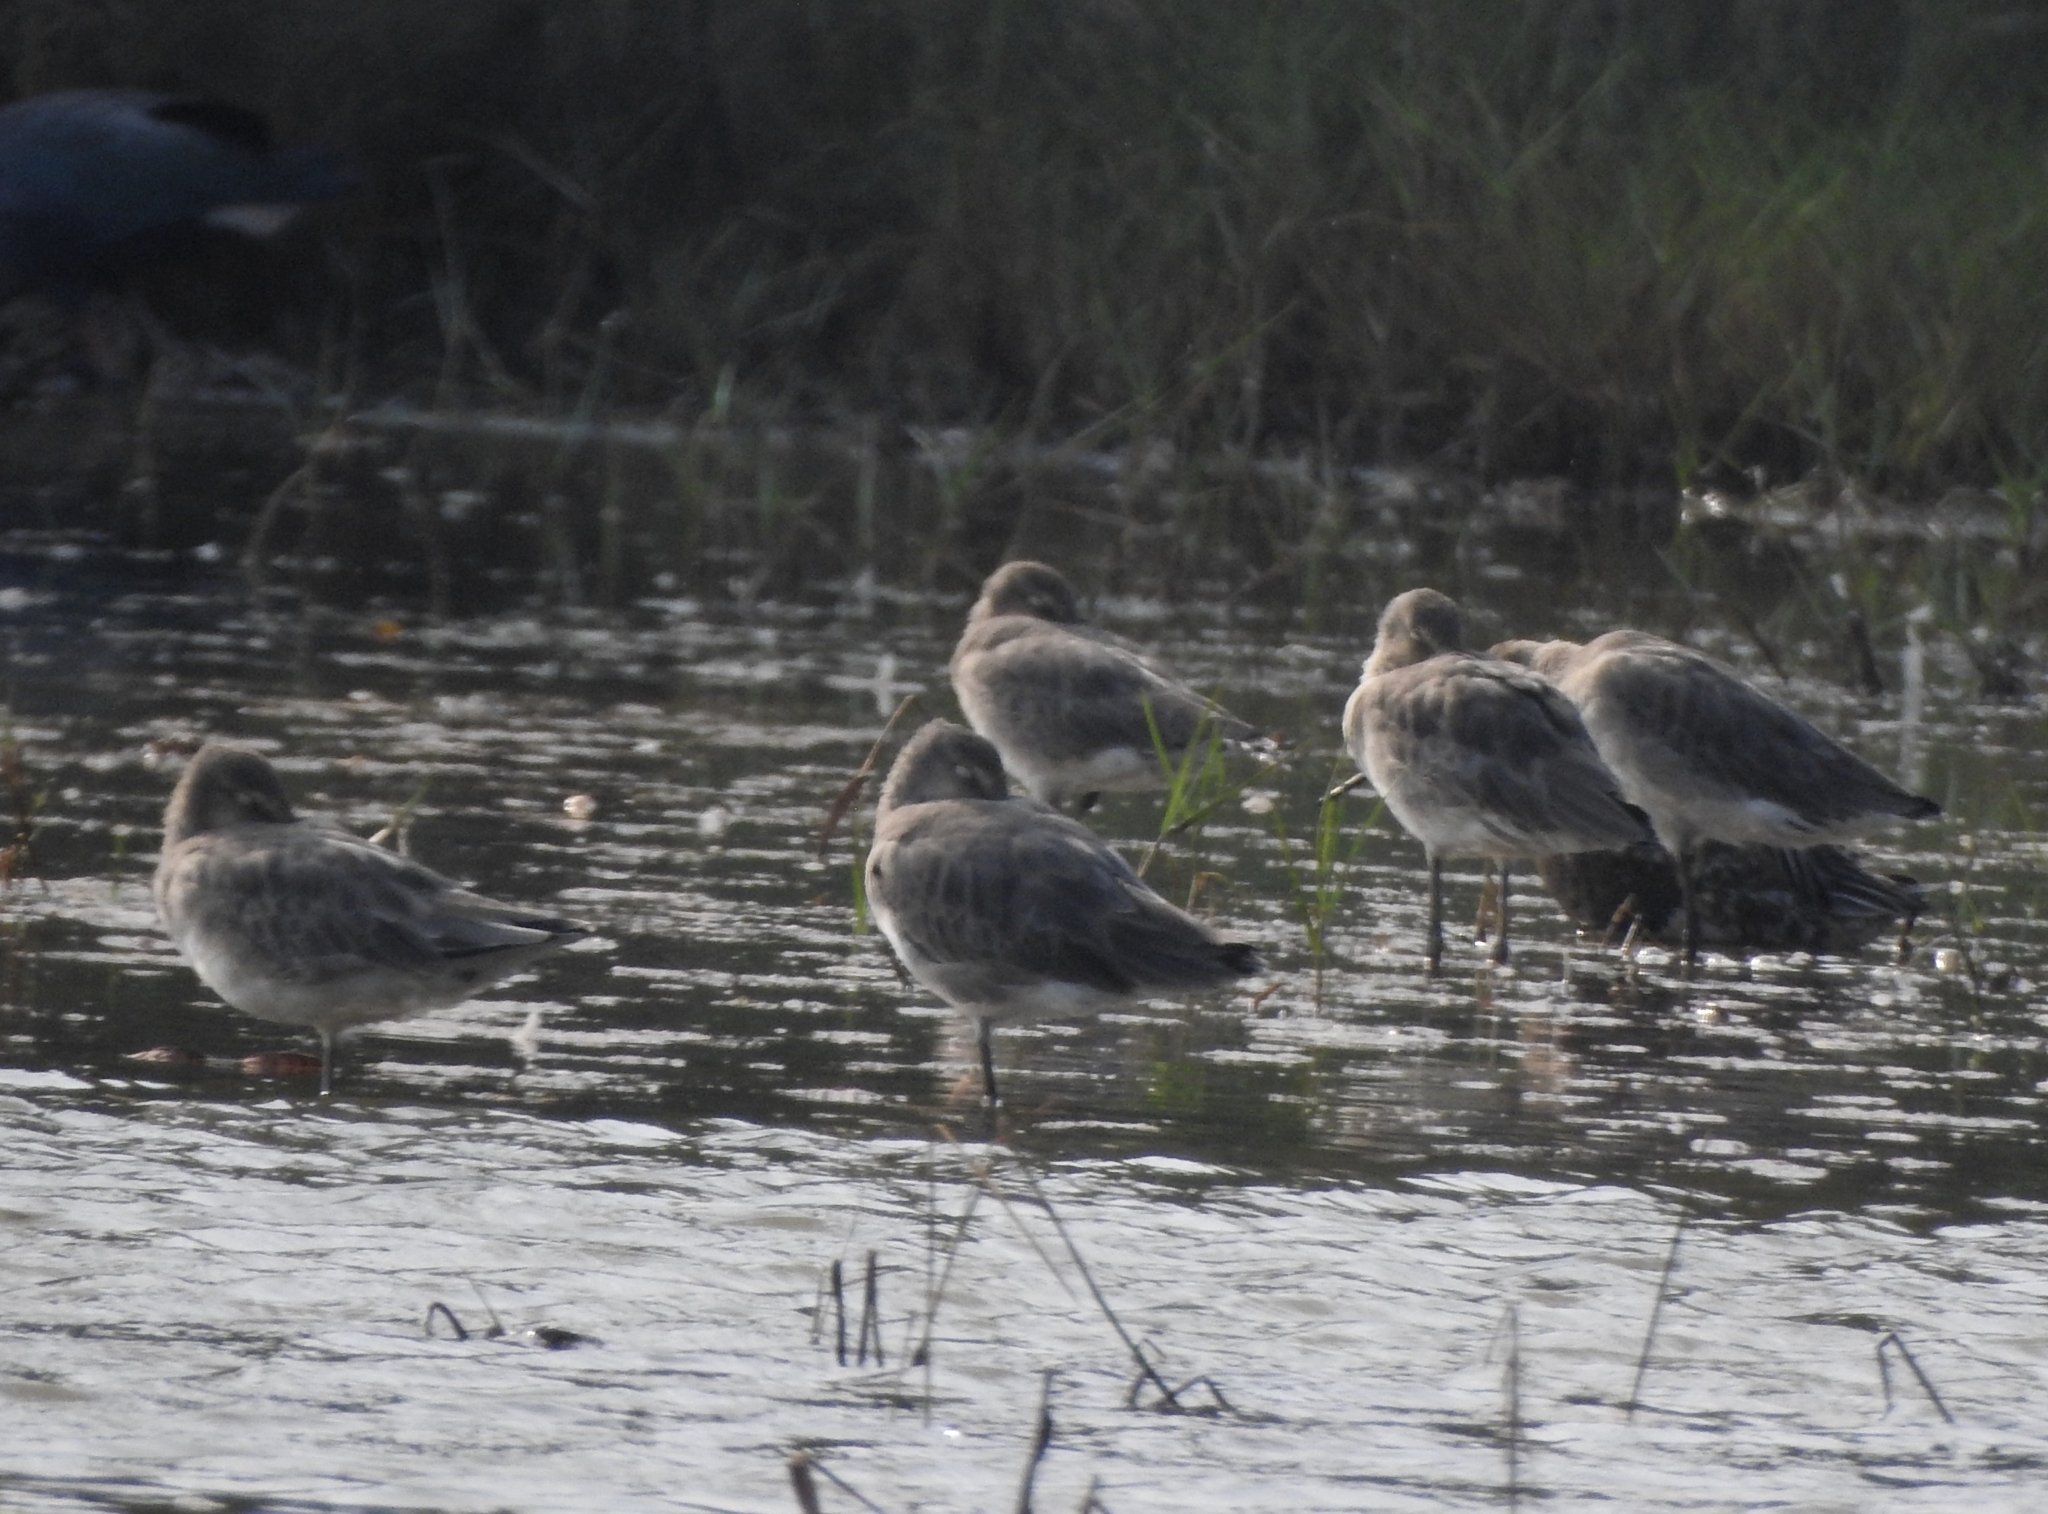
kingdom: Animalia
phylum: Chordata
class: Aves
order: Charadriiformes
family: Scolopacidae
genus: Limosa
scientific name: Limosa limosa
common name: Black-tailed godwit
